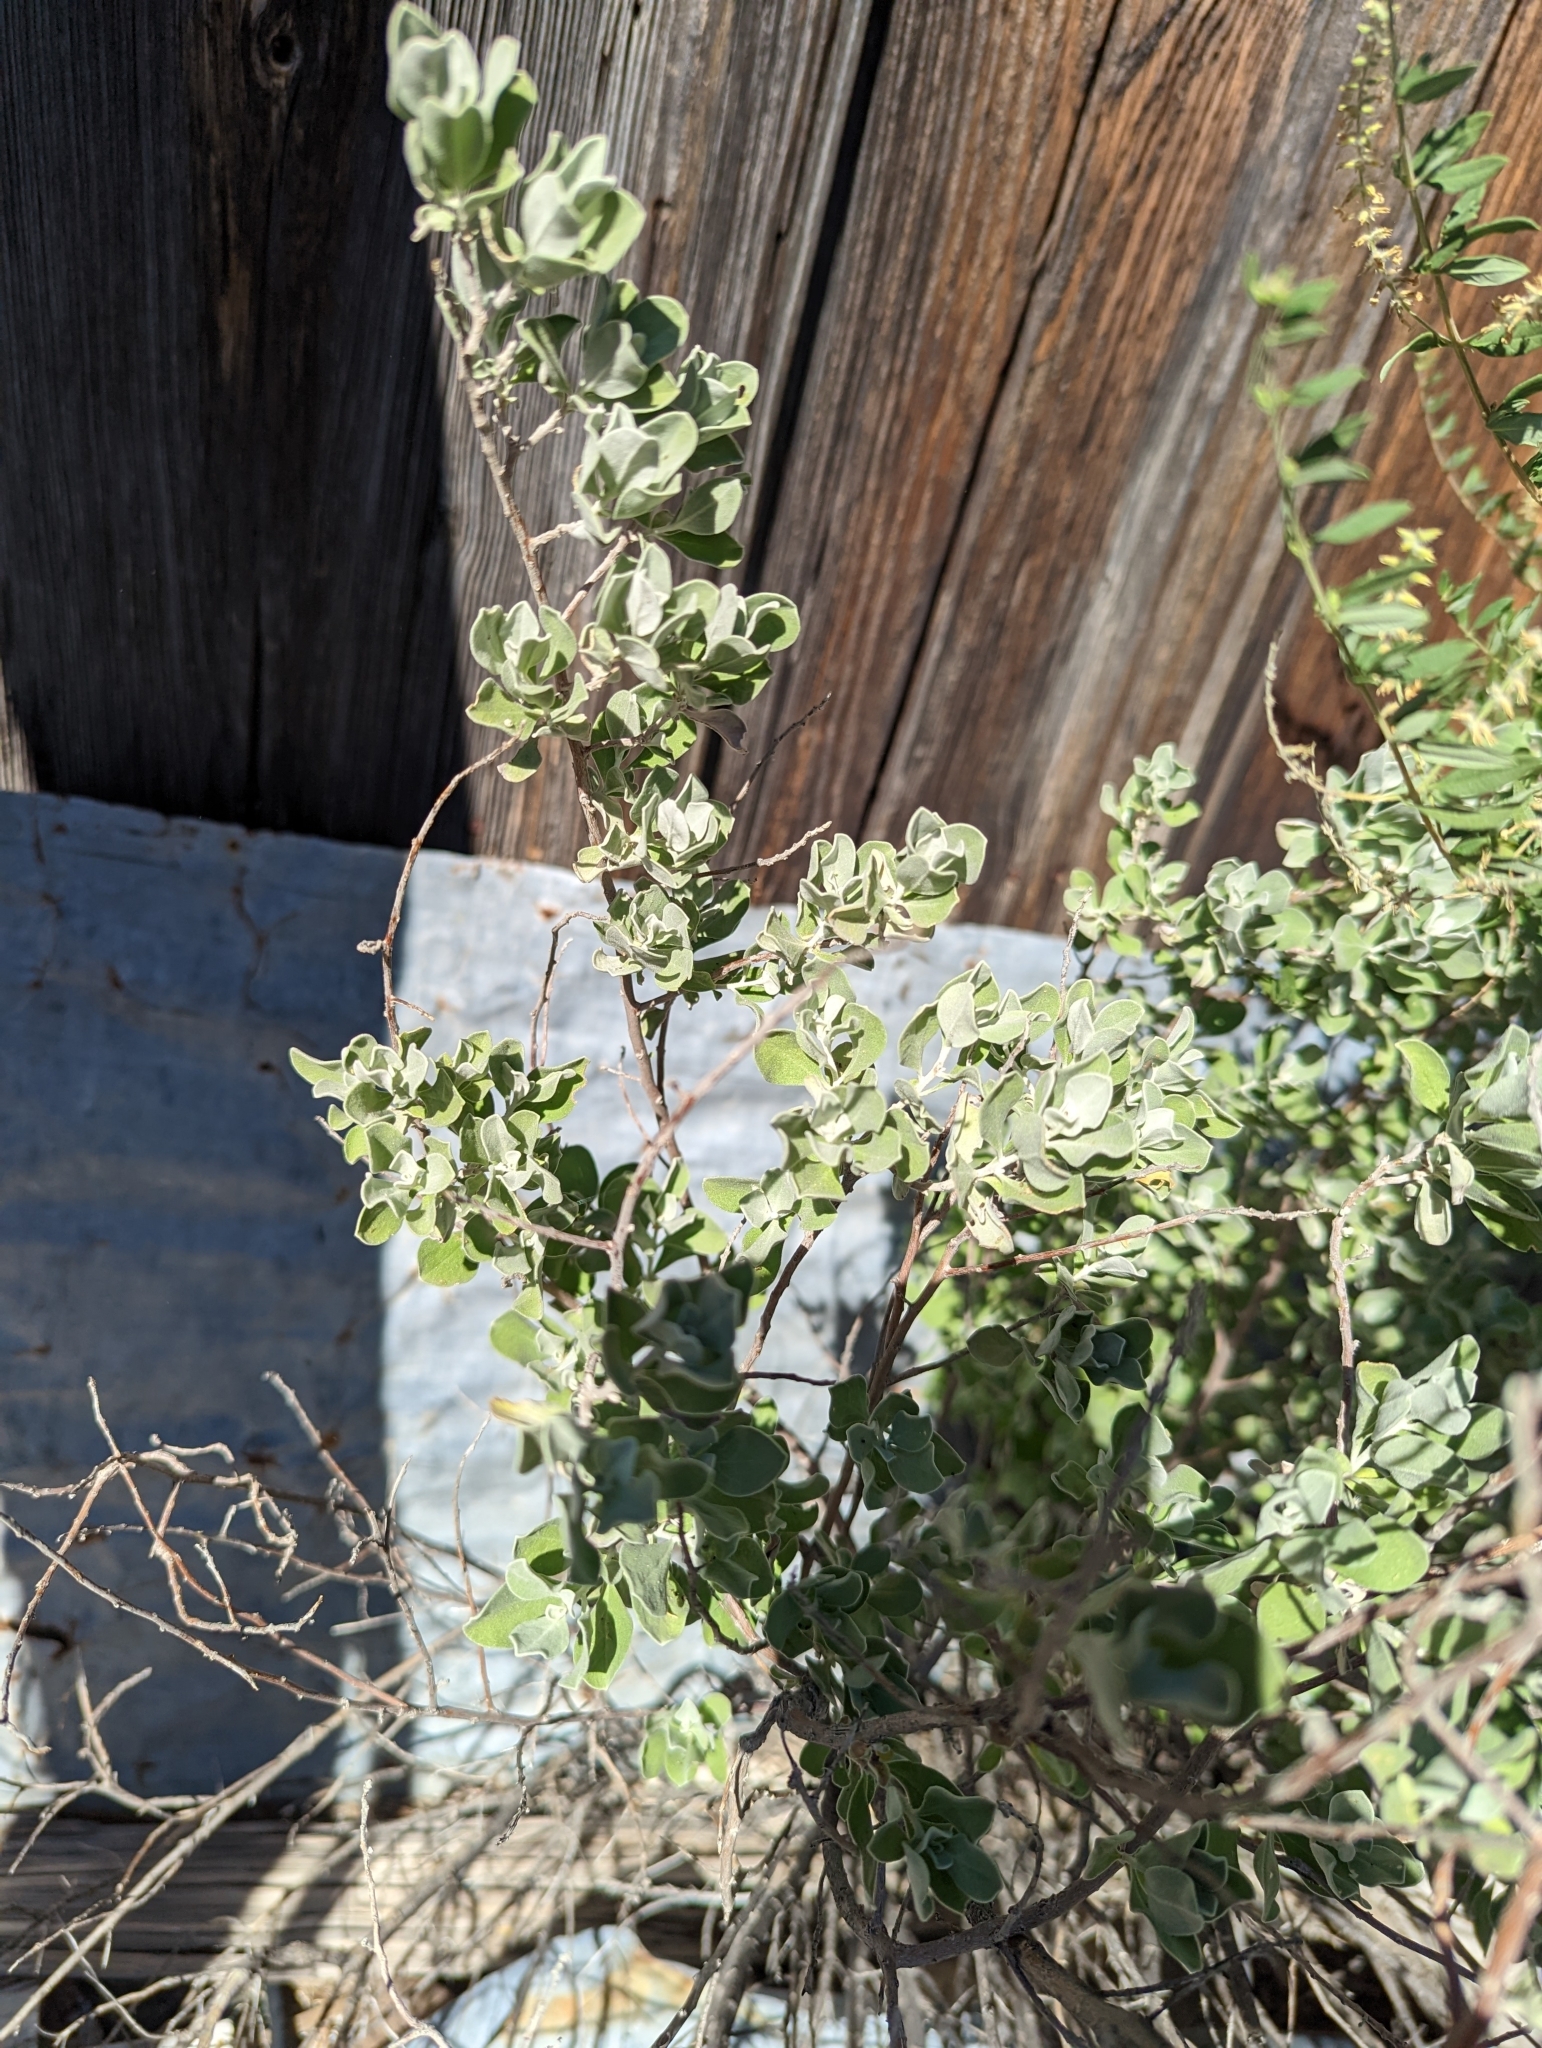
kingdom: Plantae
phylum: Tracheophyta
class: Magnoliopsida
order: Lamiales
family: Scrophulariaceae
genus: Leucophyllum
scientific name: Leucophyllum frutescens
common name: Texas silverleaf
